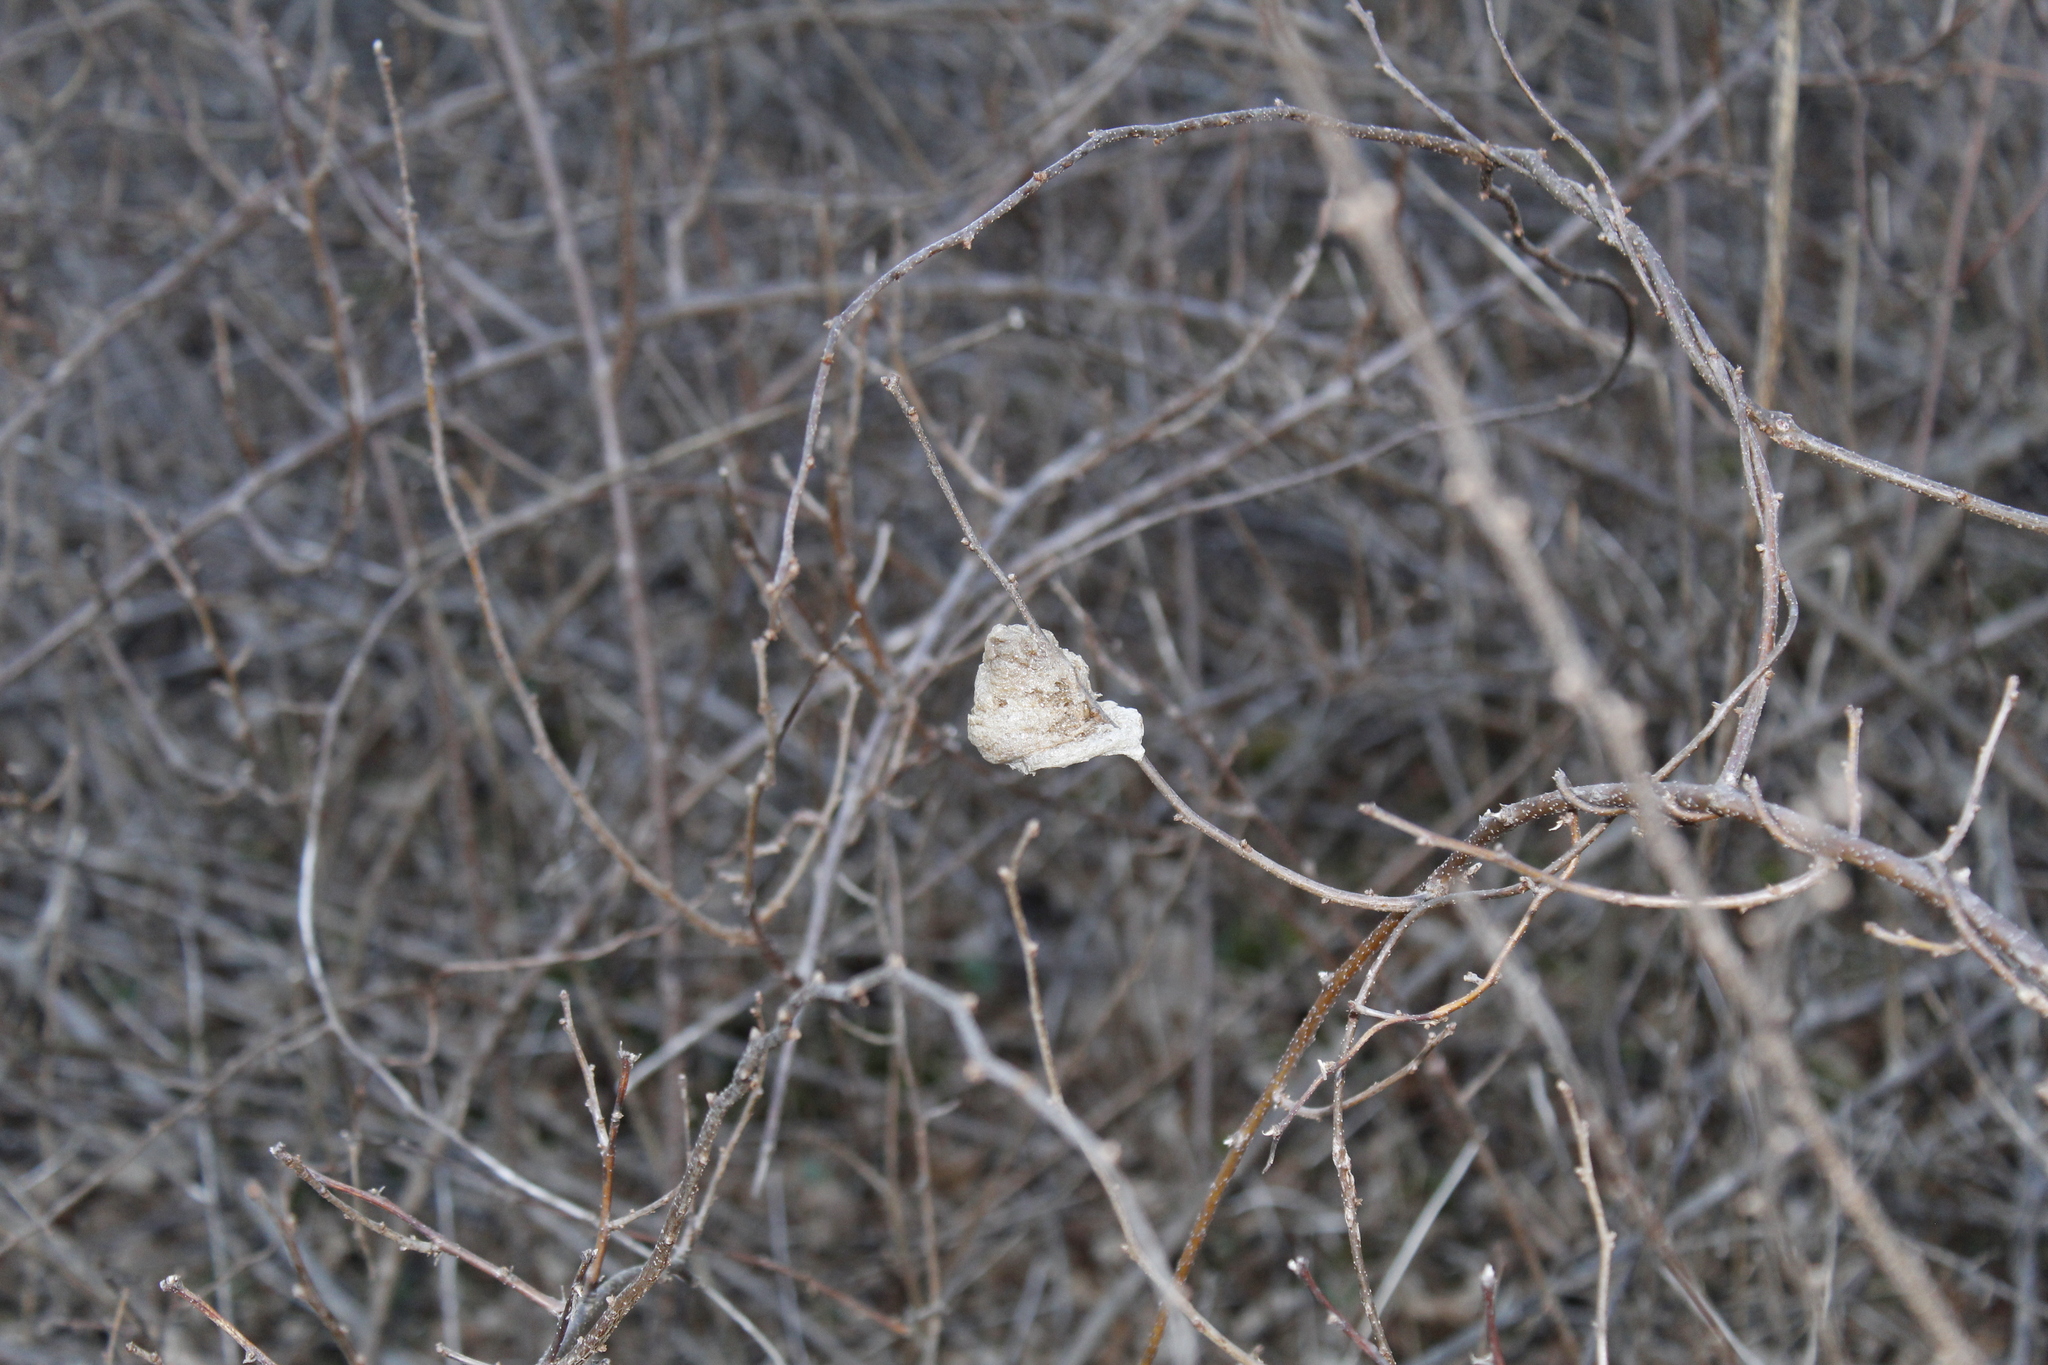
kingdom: Animalia
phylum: Arthropoda
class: Insecta
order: Mantodea
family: Mantidae
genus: Tenodera
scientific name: Tenodera sinensis
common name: Chinese mantis
